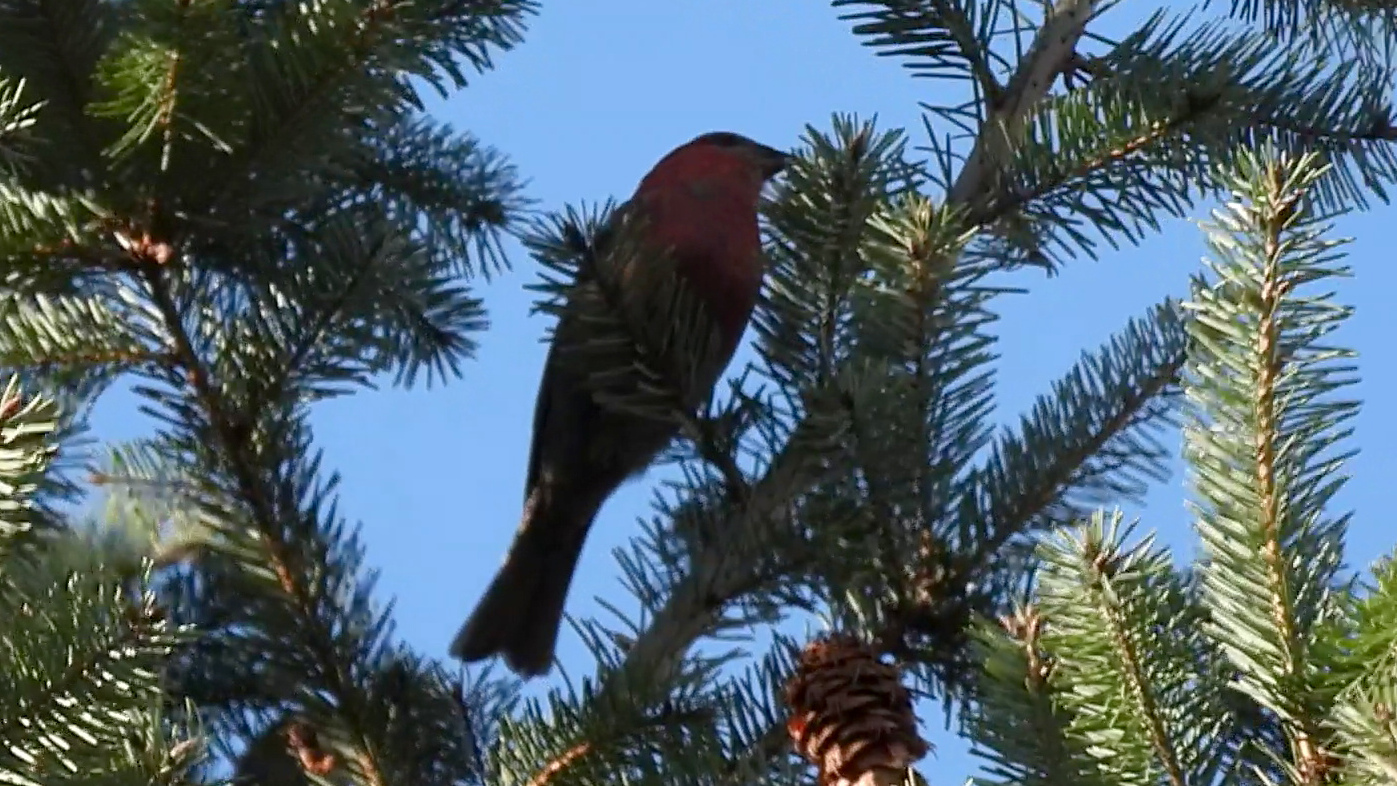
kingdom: Animalia
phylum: Chordata
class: Aves
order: Passeriformes
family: Fringillidae
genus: Pinicola
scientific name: Pinicola enucleator
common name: Pine grosbeak
